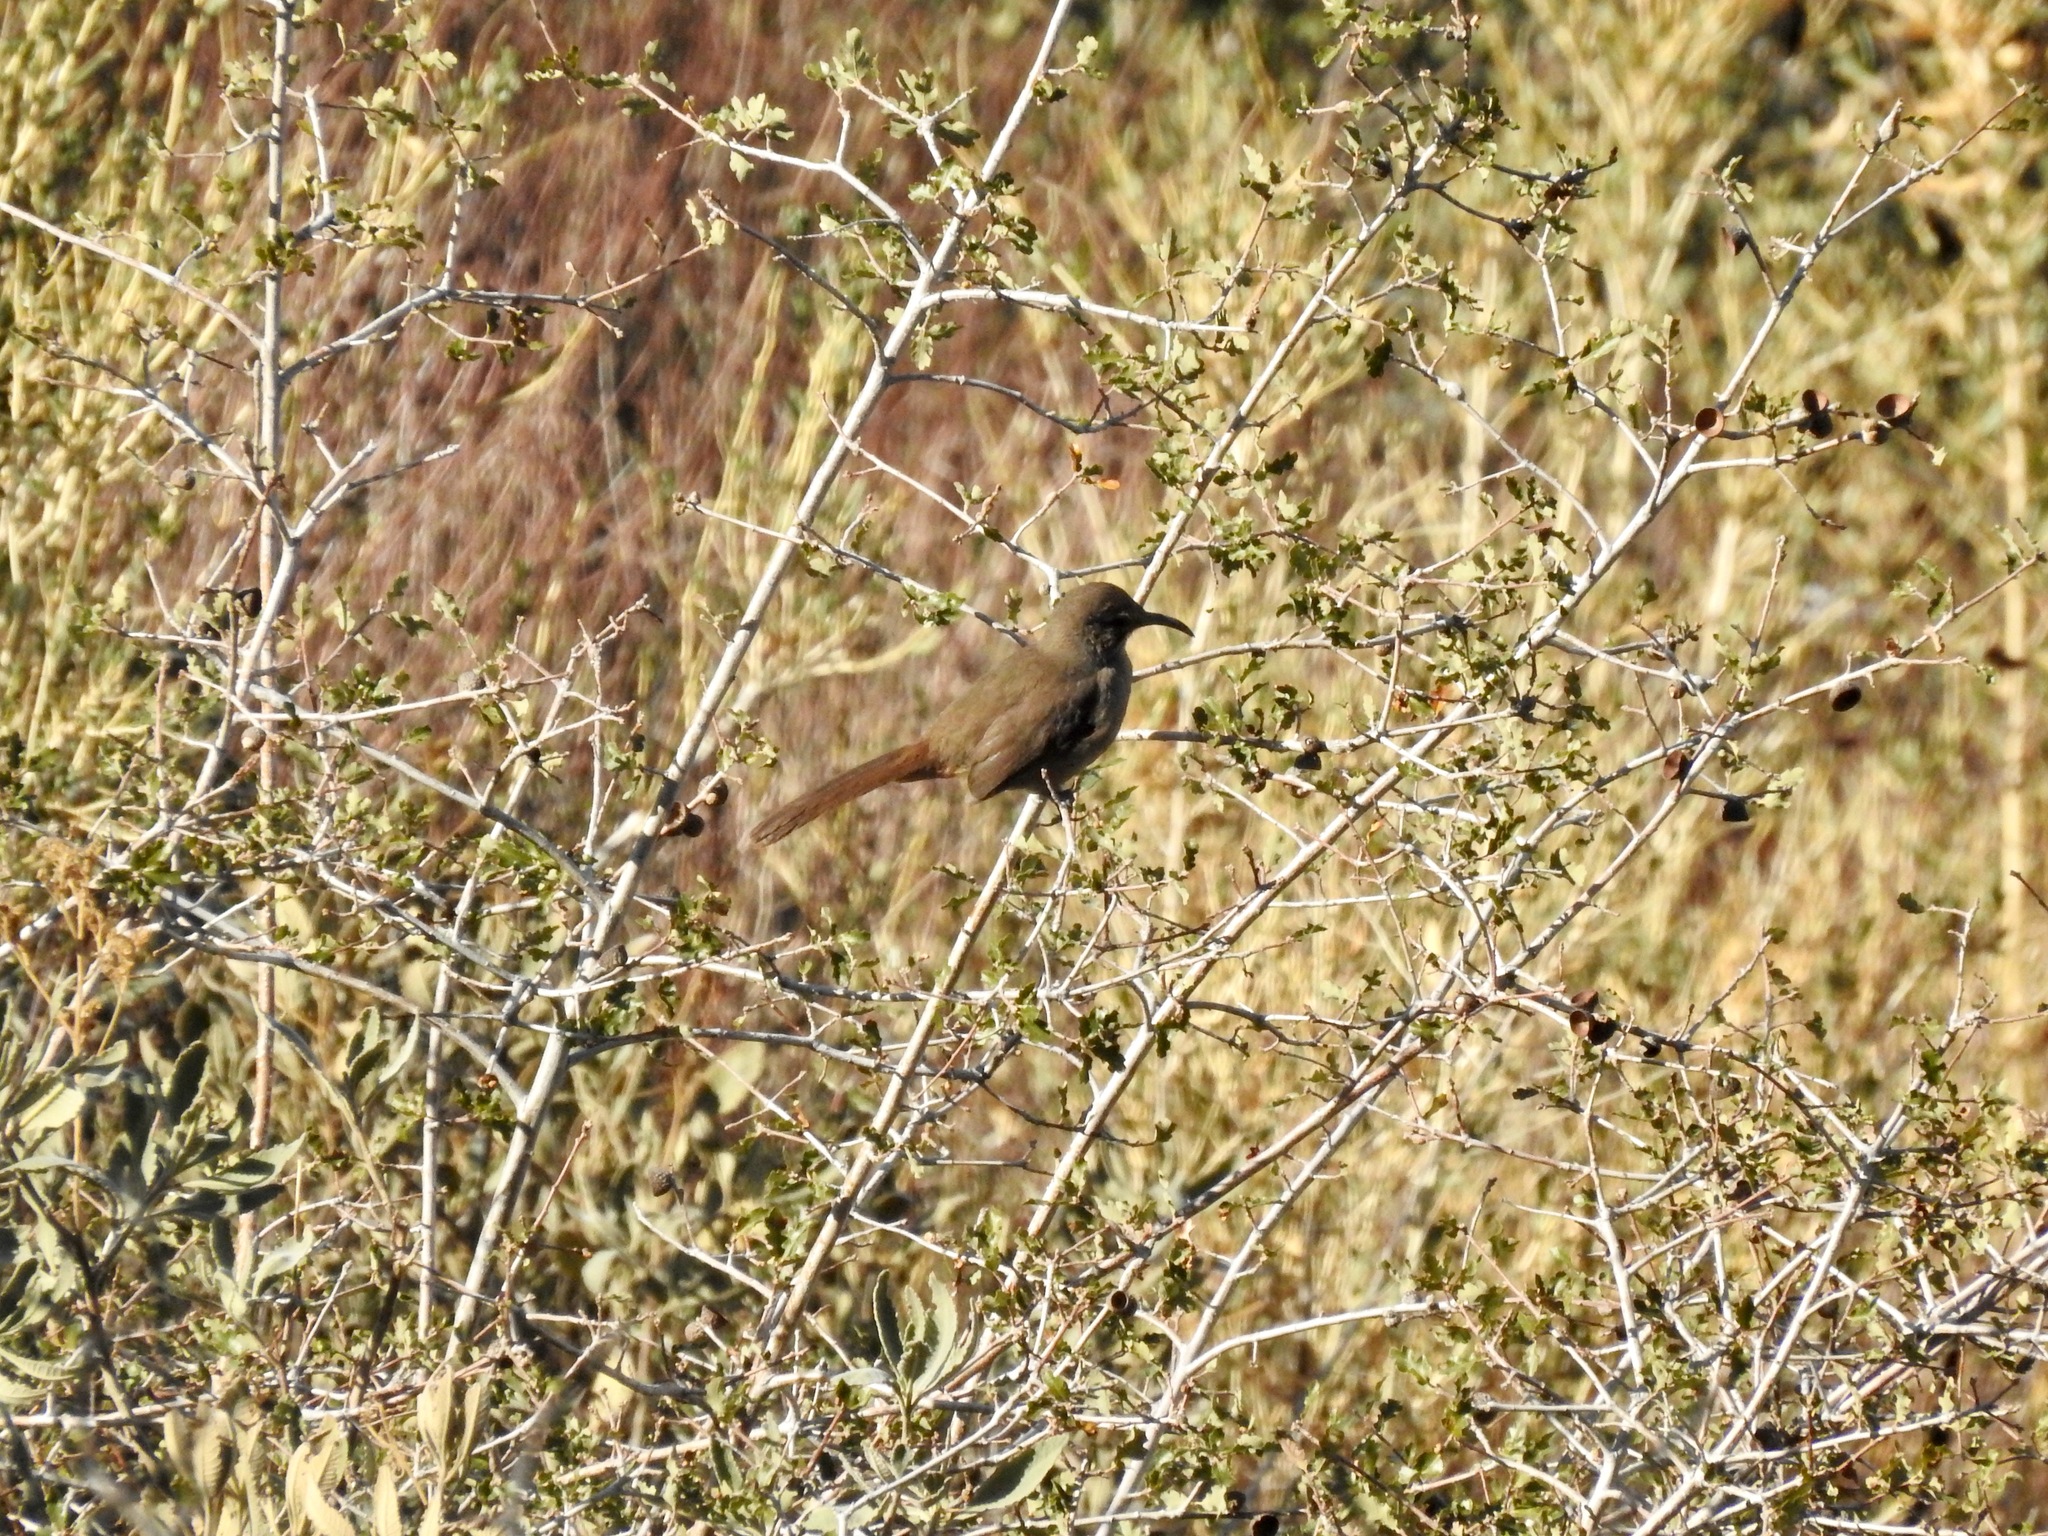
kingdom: Animalia
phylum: Chordata
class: Aves
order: Passeriformes
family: Mimidae
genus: Toxostoma
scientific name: Toxostoma redivivum
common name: California thrasher
